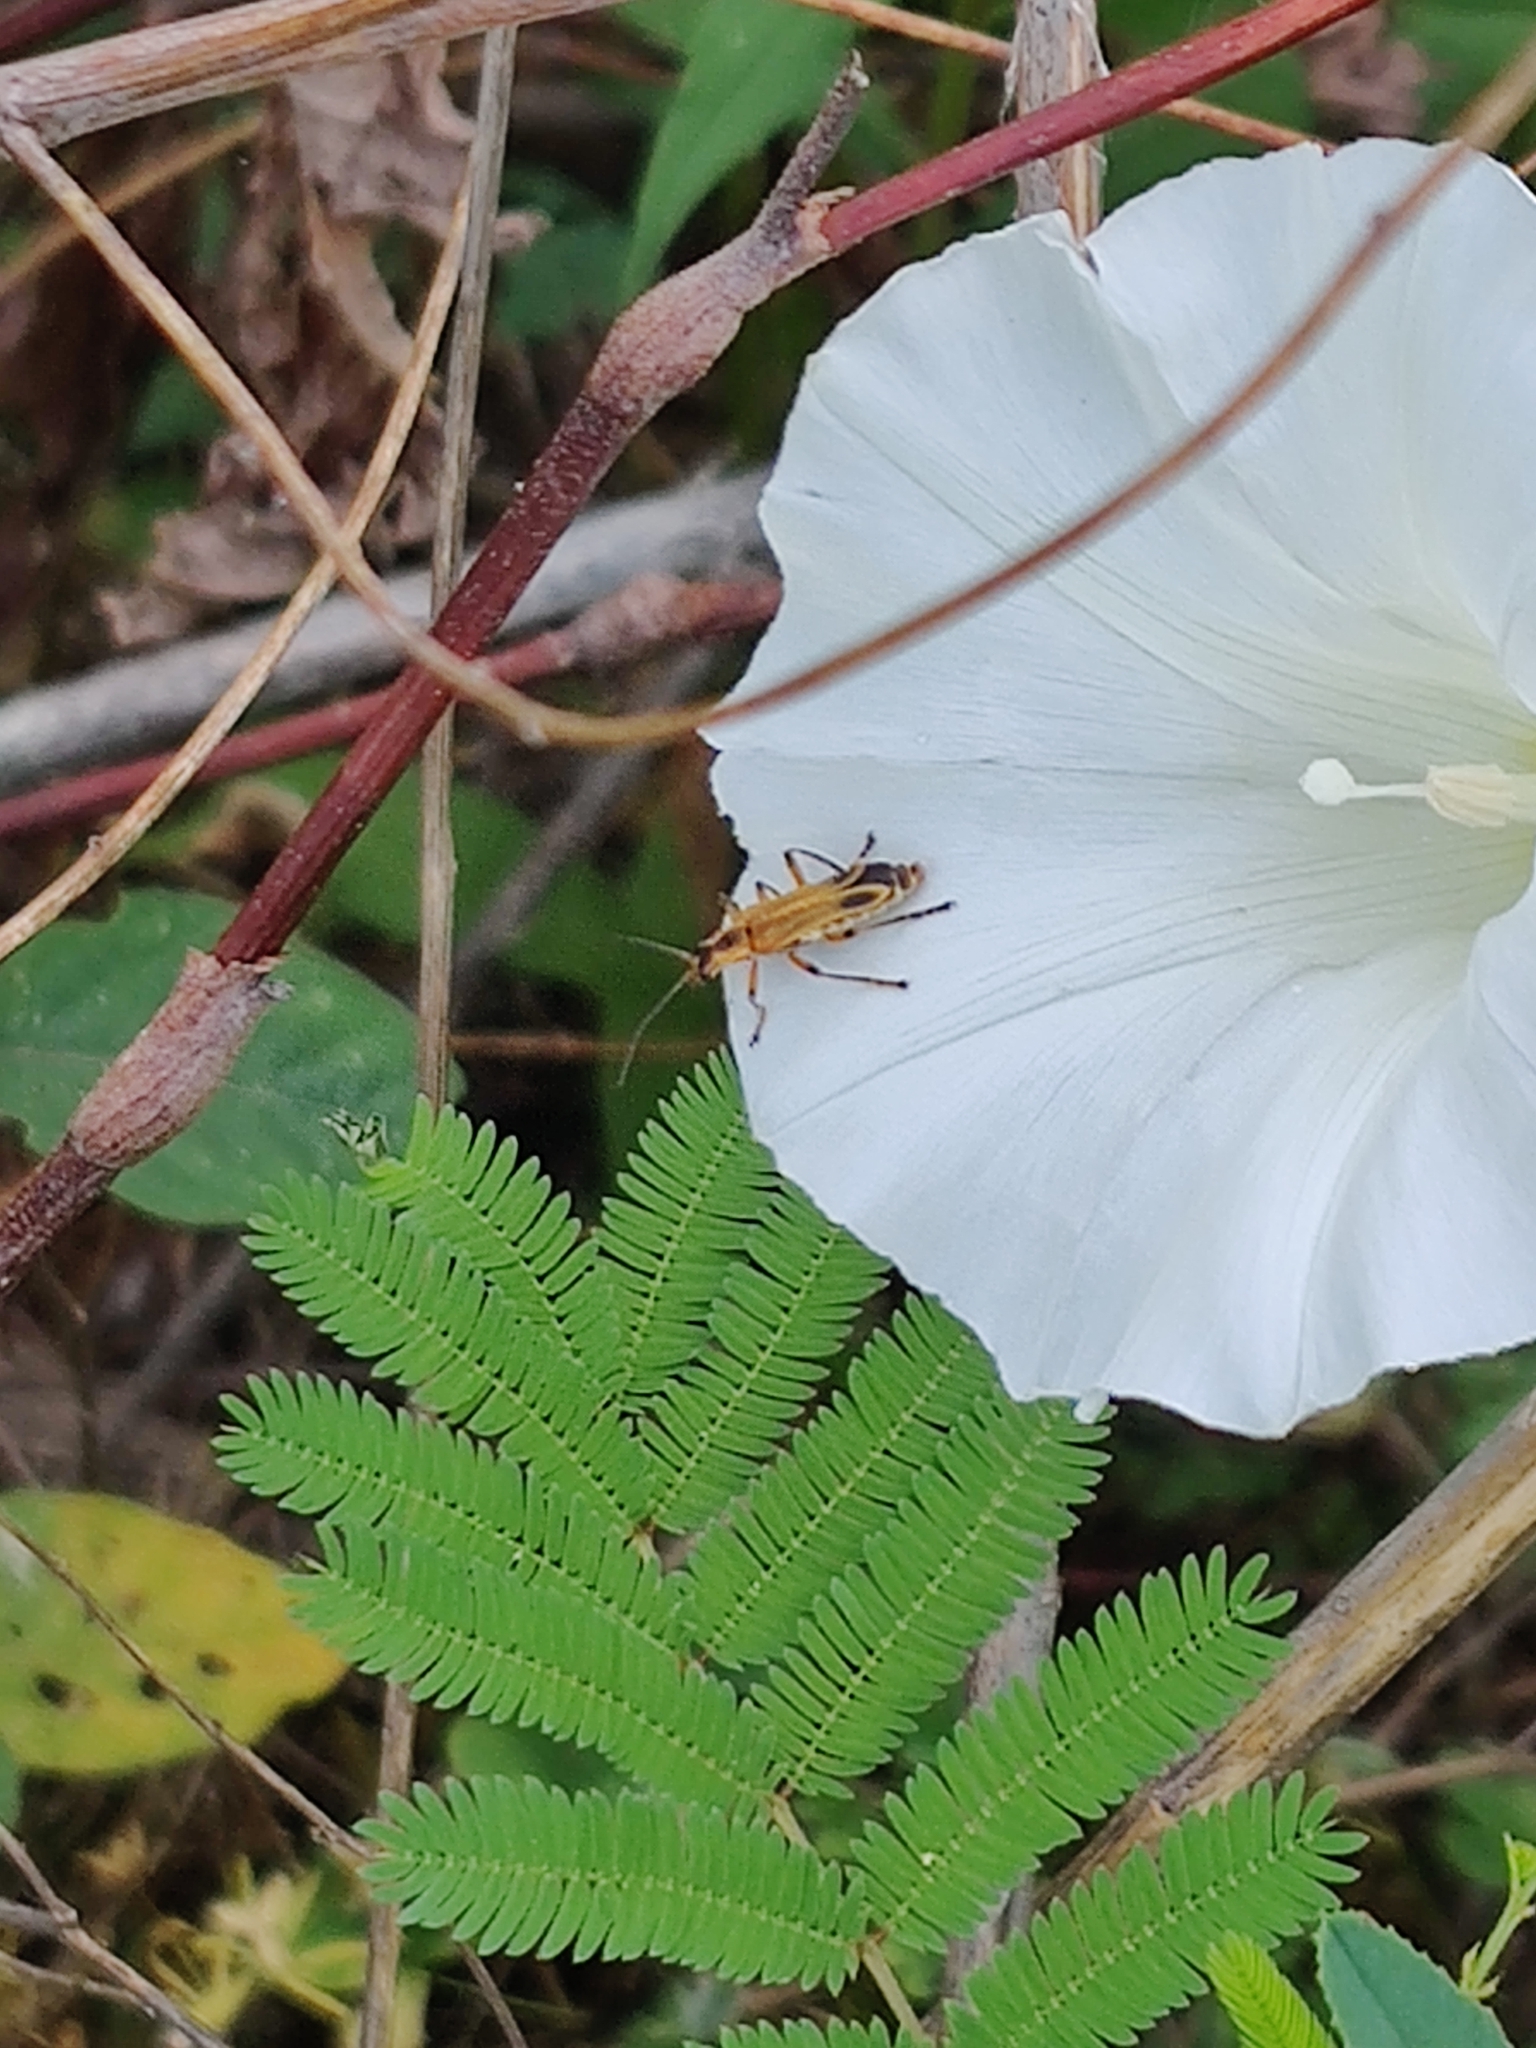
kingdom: Animalia
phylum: Arthropoda
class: Insecta
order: Coleoptera
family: Cantharidae
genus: Chauliognathus
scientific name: Chauliognathus marginatus
